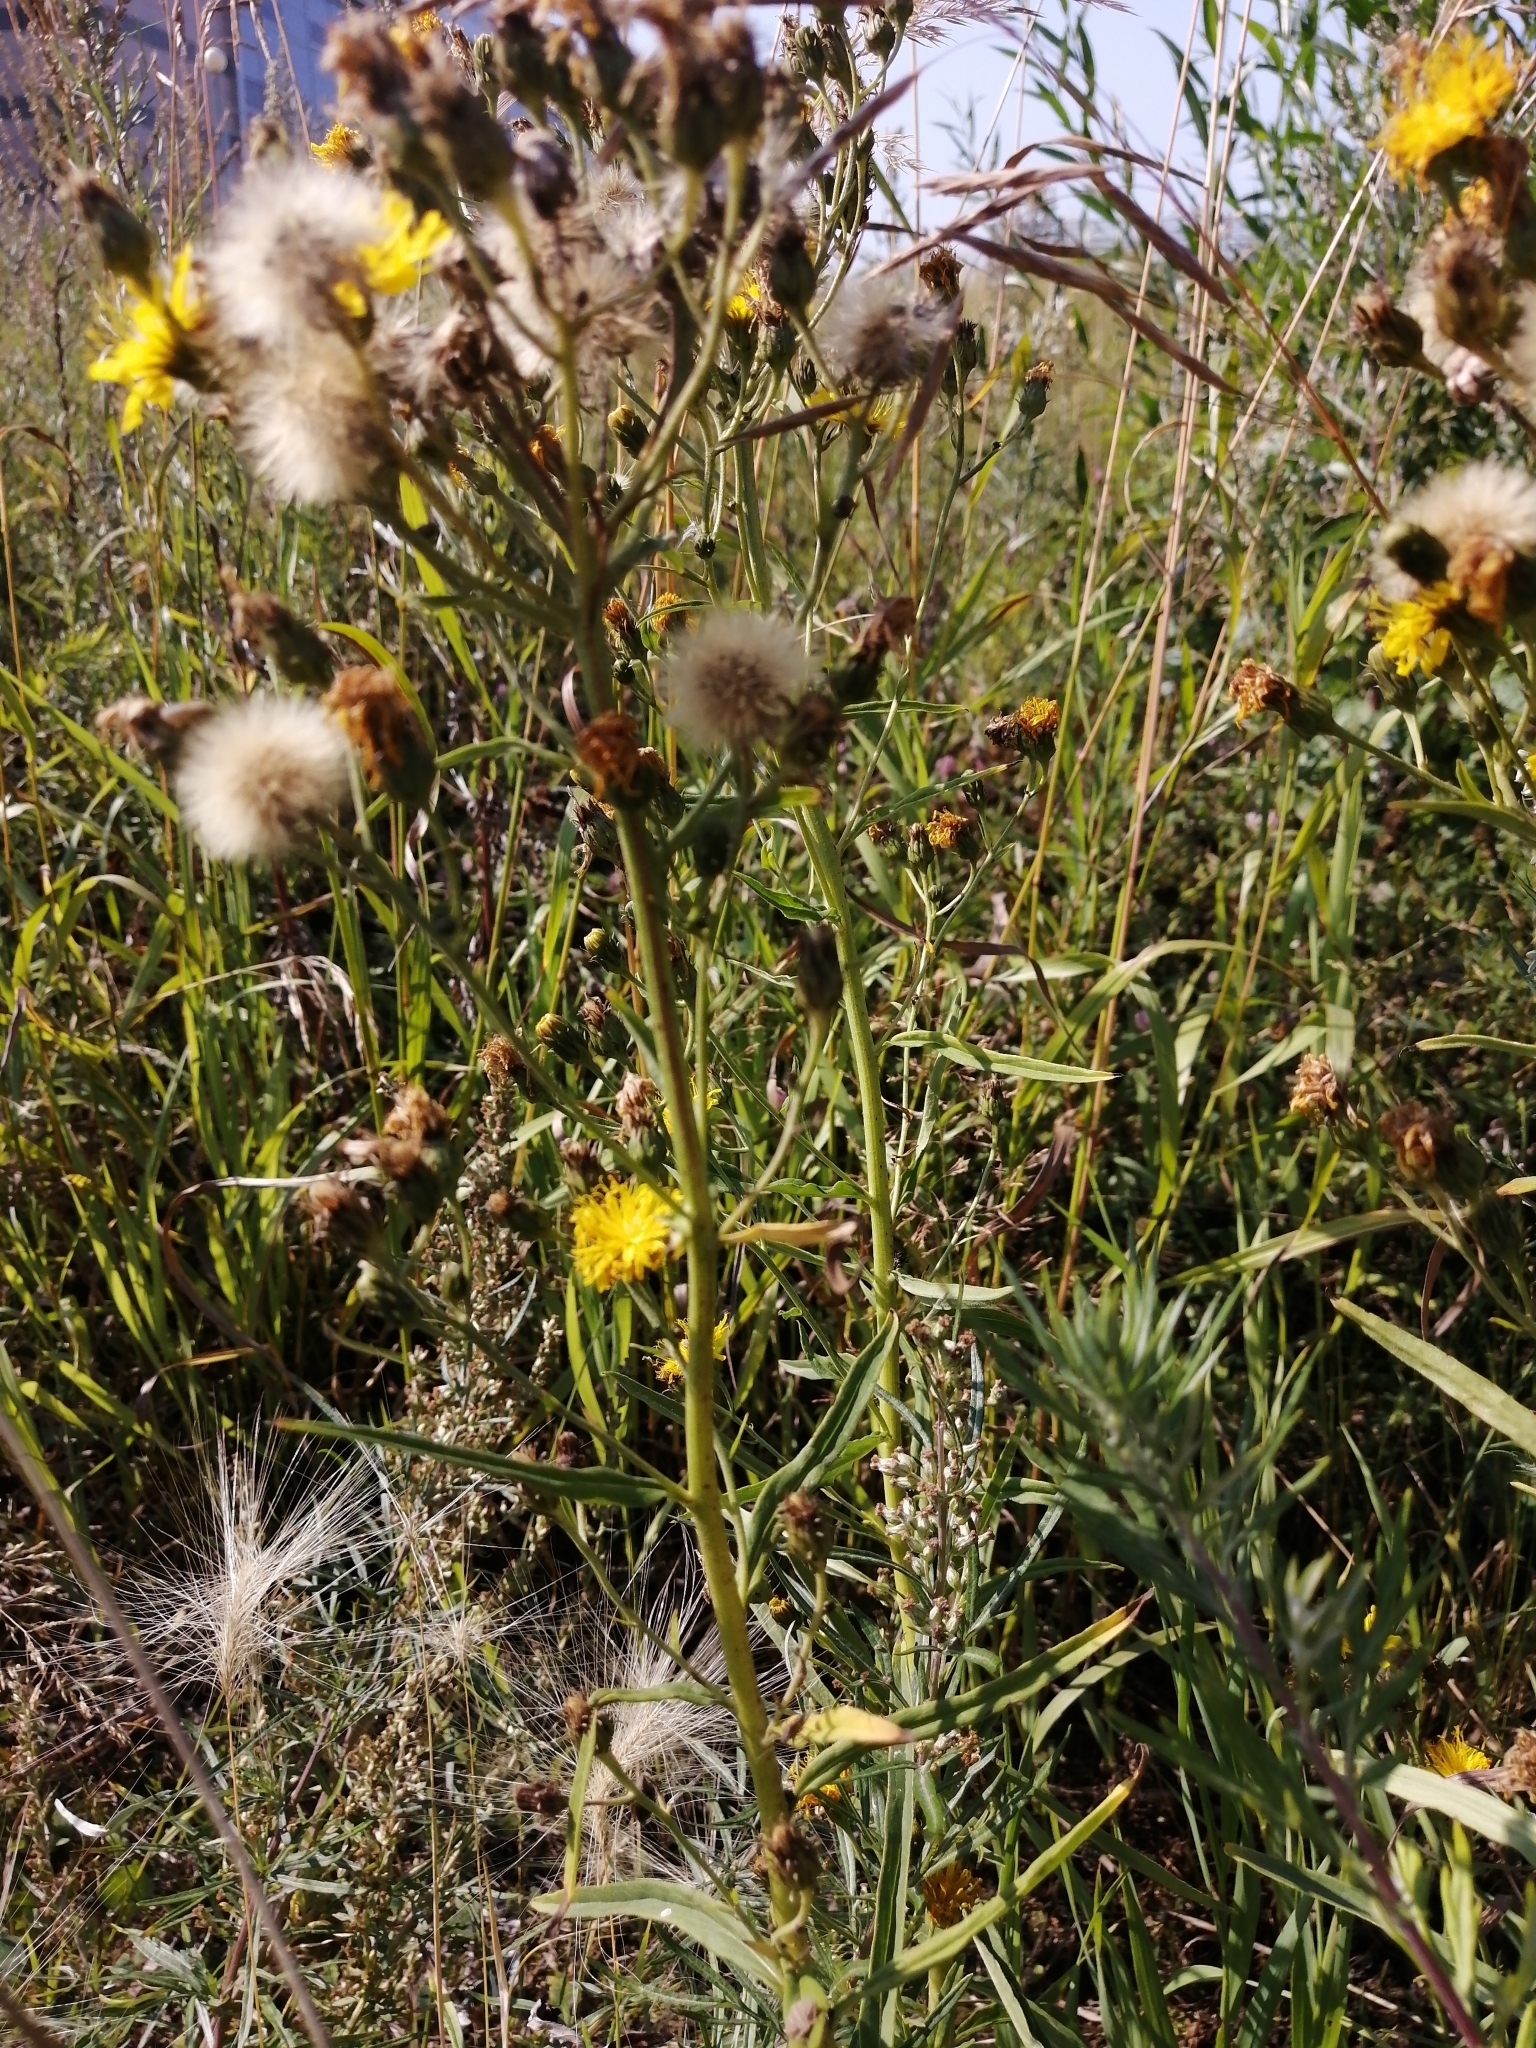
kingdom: Plantae
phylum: Tracheophyta
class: Magnoliopsida
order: Asterales
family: Asteraceae
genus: Hieracium
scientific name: Hieracium umbellatum
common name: Northern hawkweed
